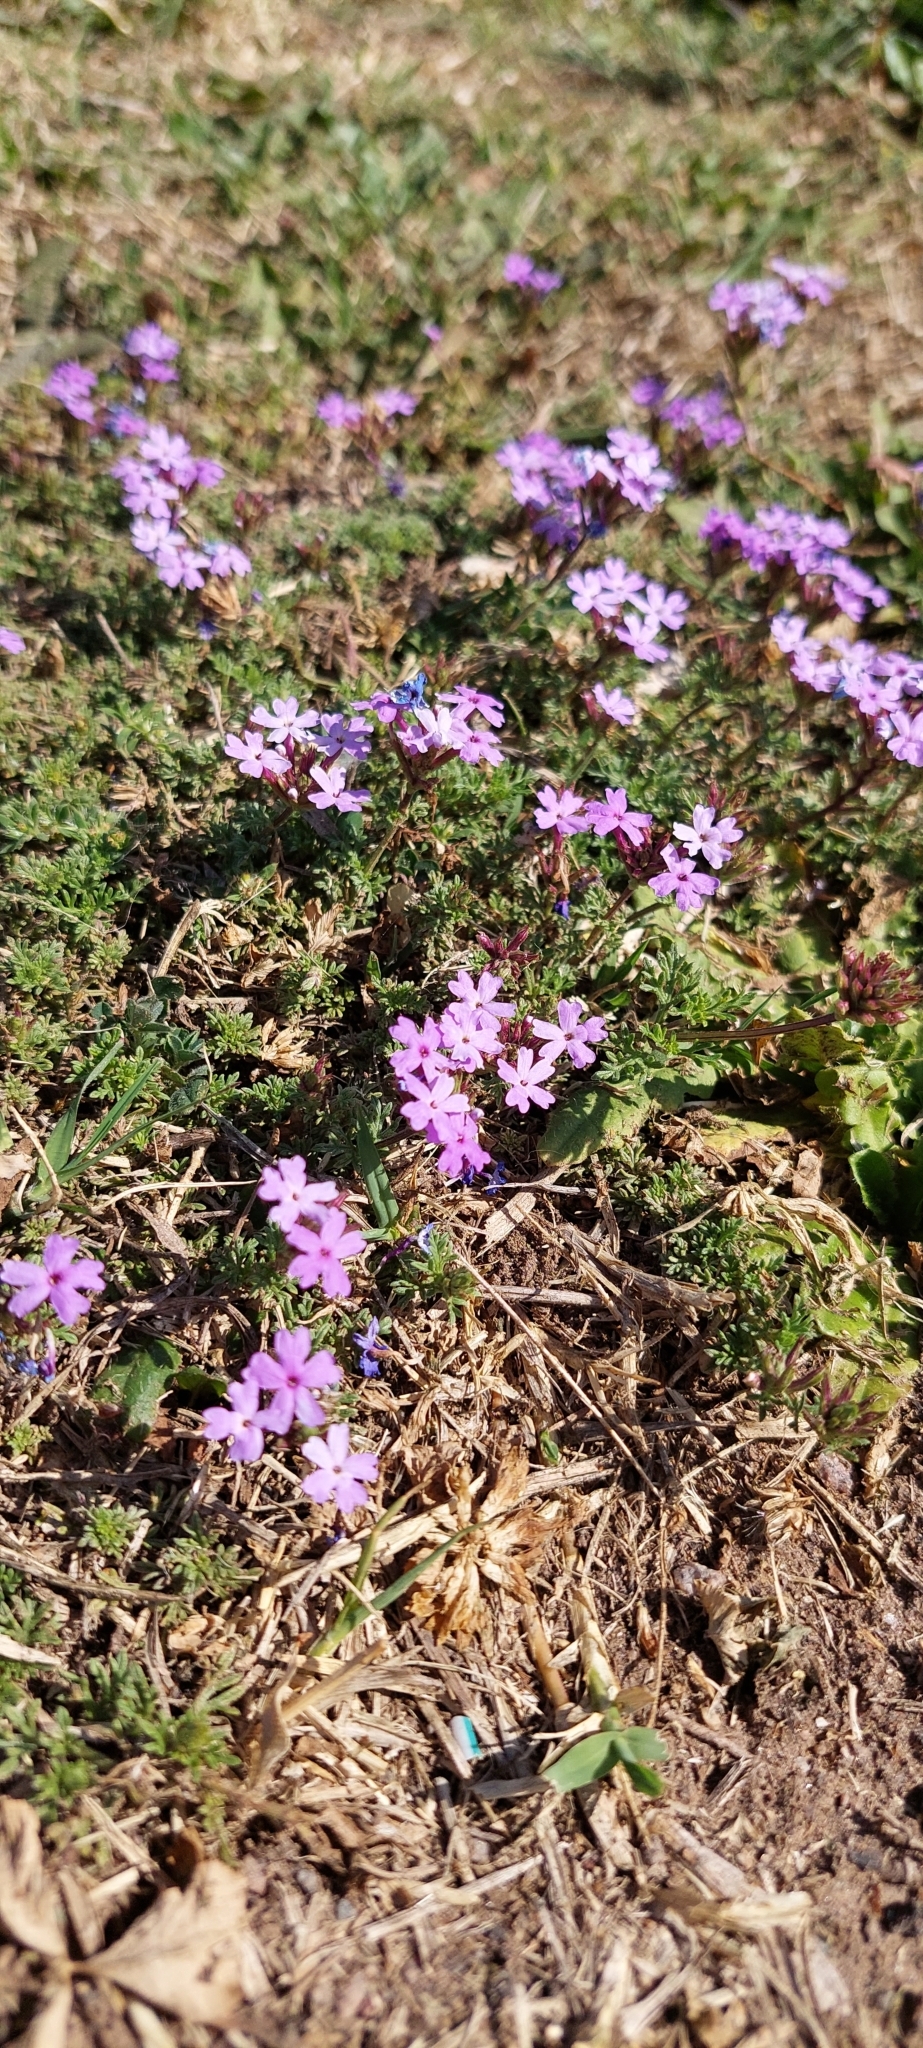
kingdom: Plantae
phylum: Tracheophyta
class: Magnoliopsida
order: Lamiales
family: Verbenaceae
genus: Verbena
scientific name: Verbena tenera
